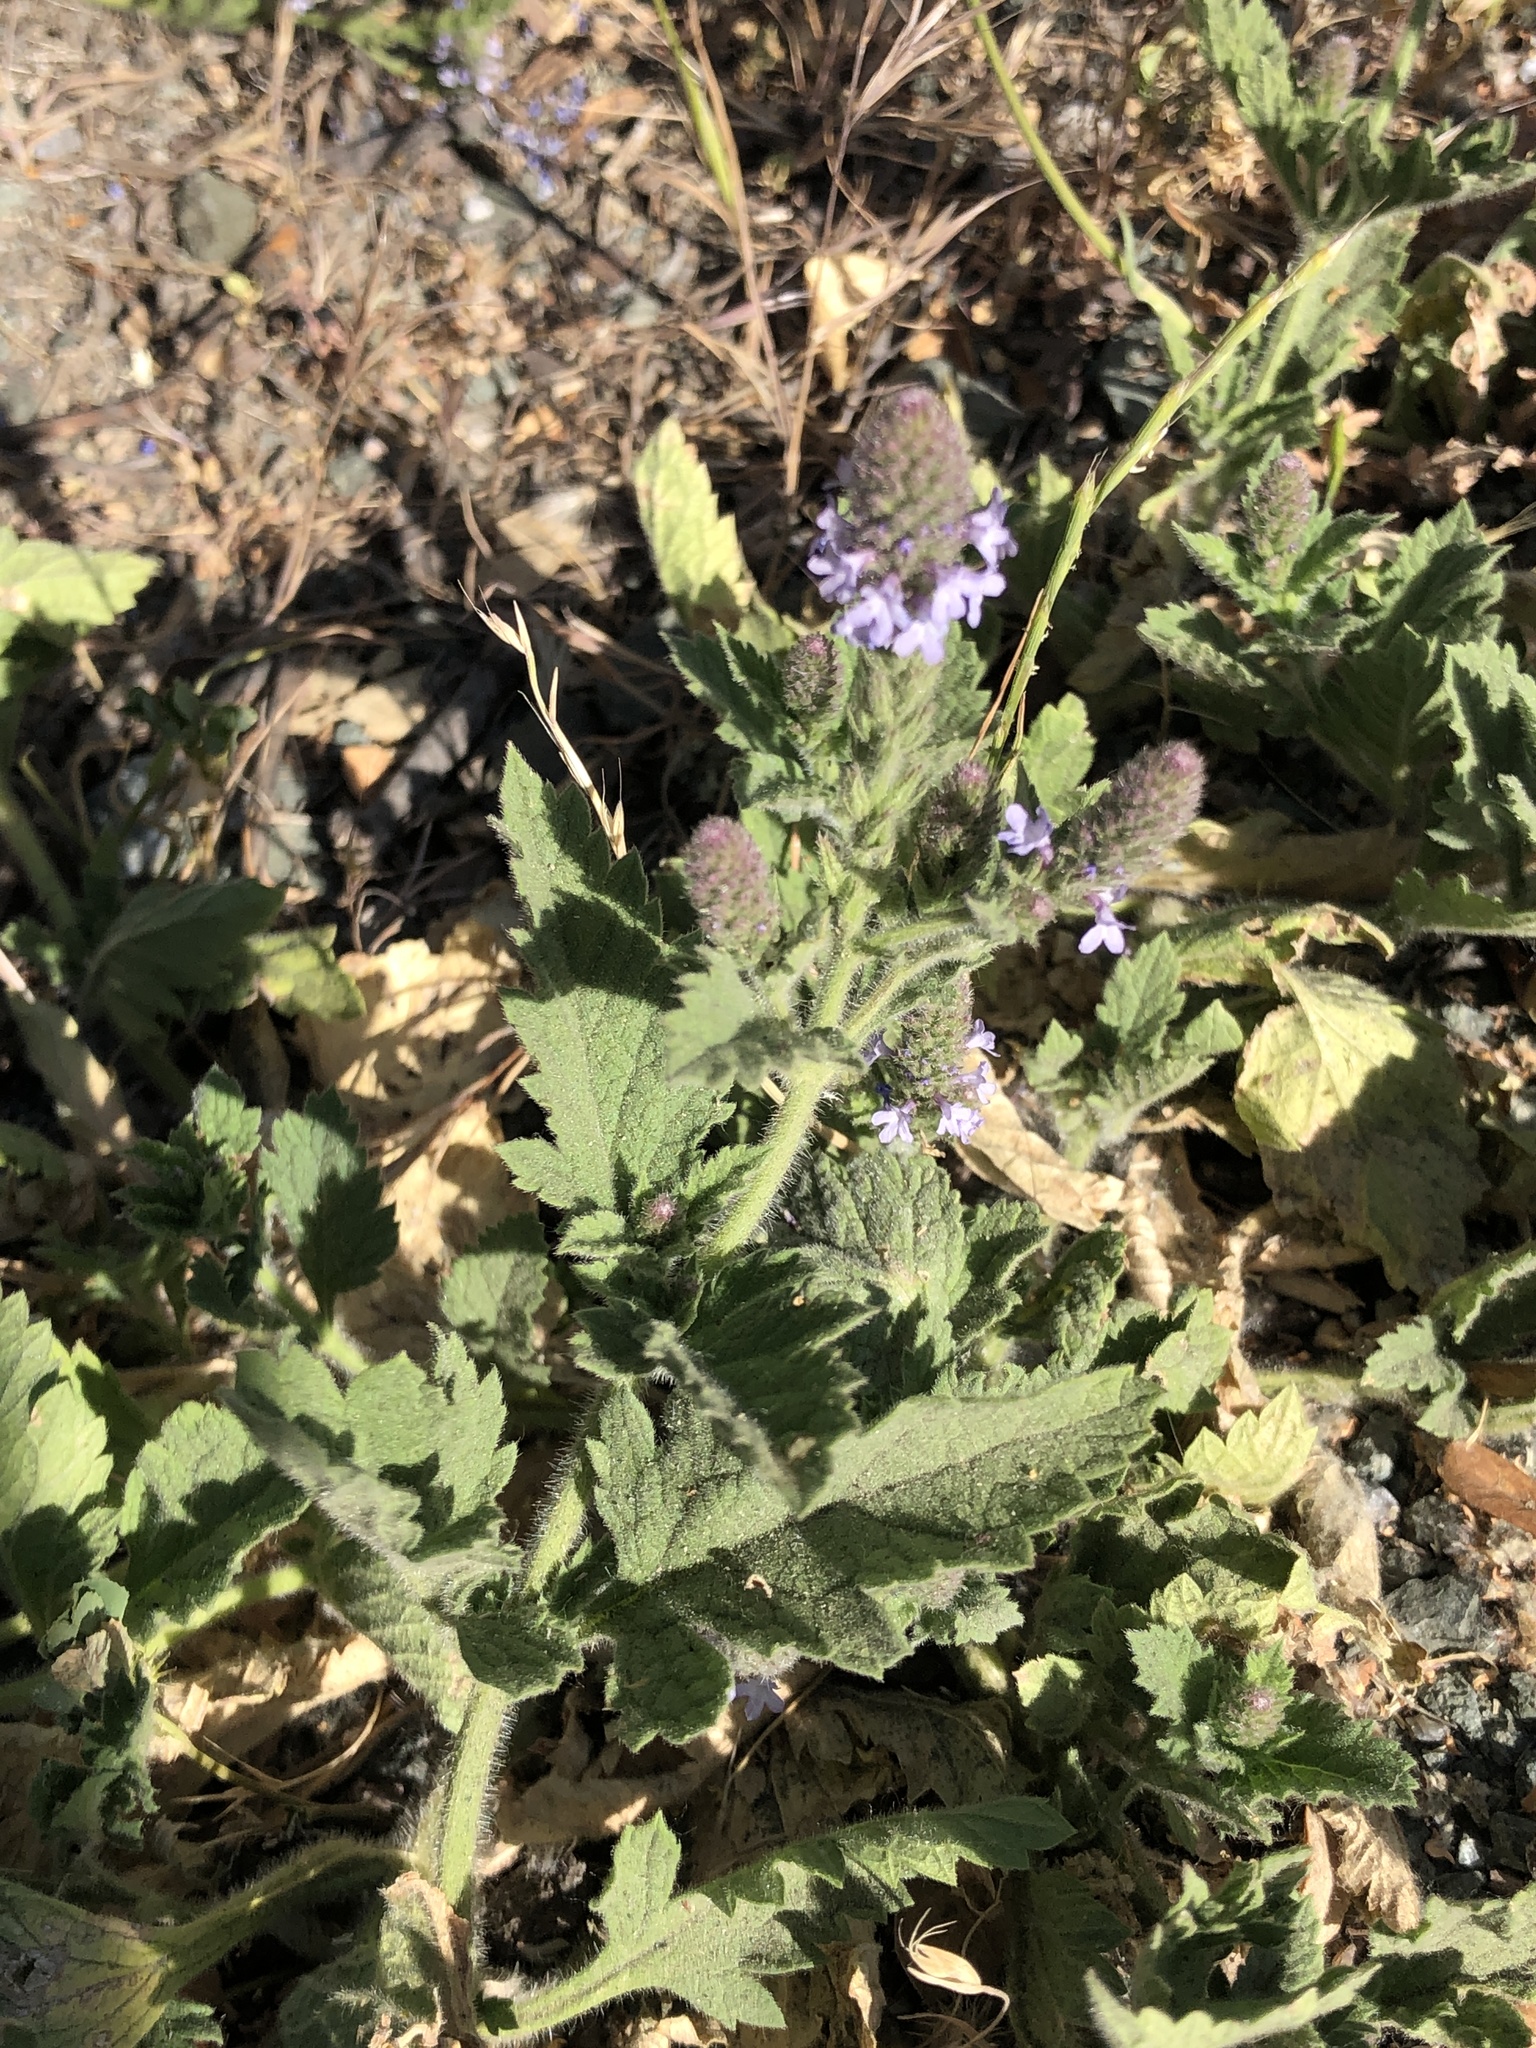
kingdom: Plantae
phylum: Tracheophyta
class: Magnoliopsida
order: Lamiales
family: Verbenaceae
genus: Verbena
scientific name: Verbena lasiostachys
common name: Vervain
